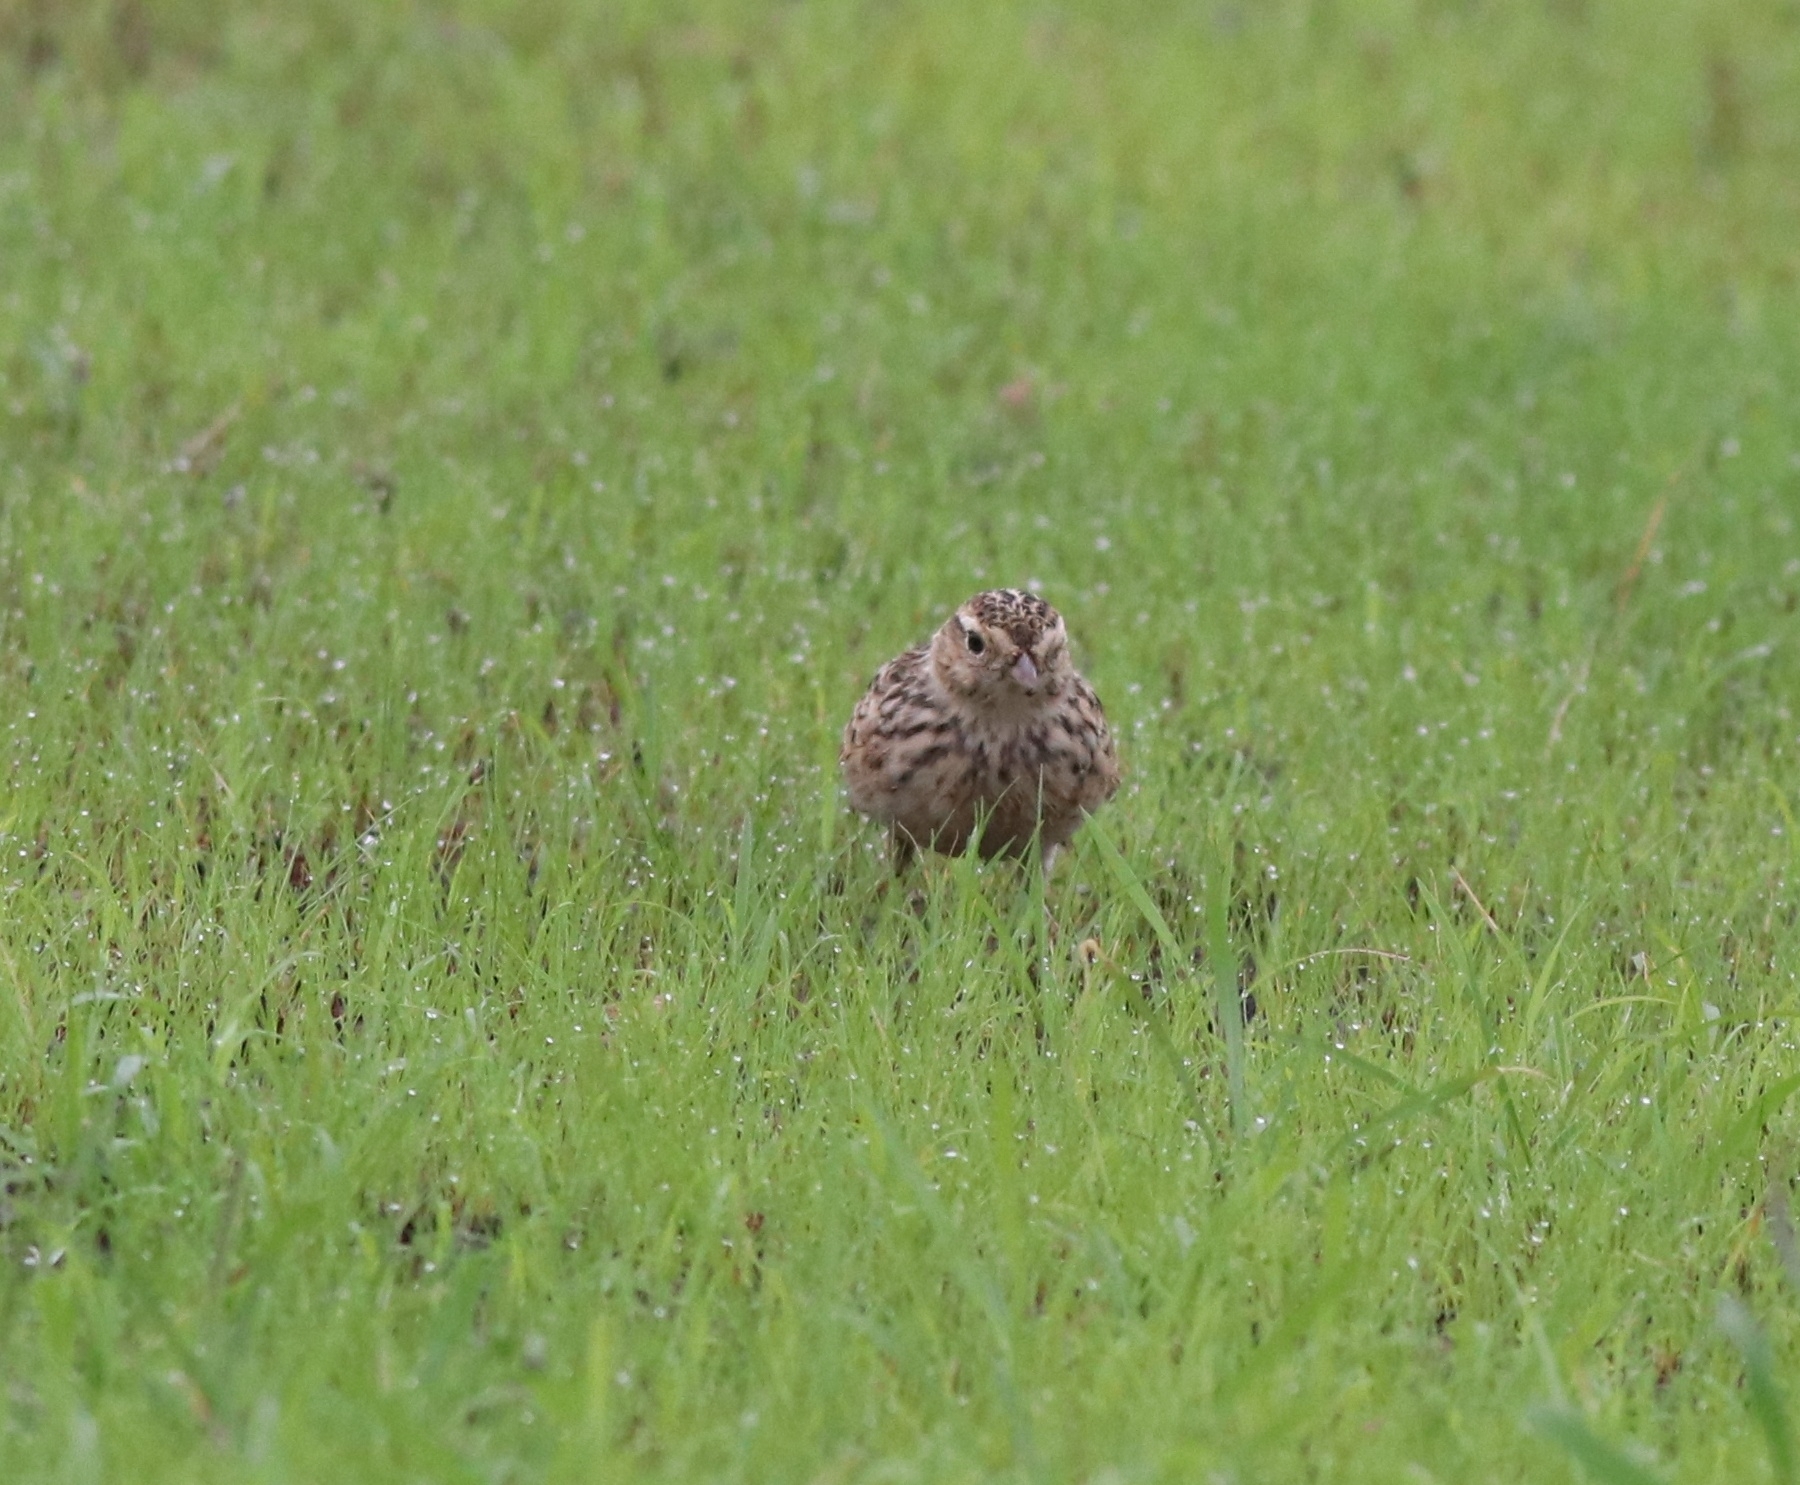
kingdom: Animalia
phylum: Chordata
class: Aves
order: Passeriformes
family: Alaudidae
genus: Alauda
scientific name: Alauda gulgula
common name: Oriental skylark
